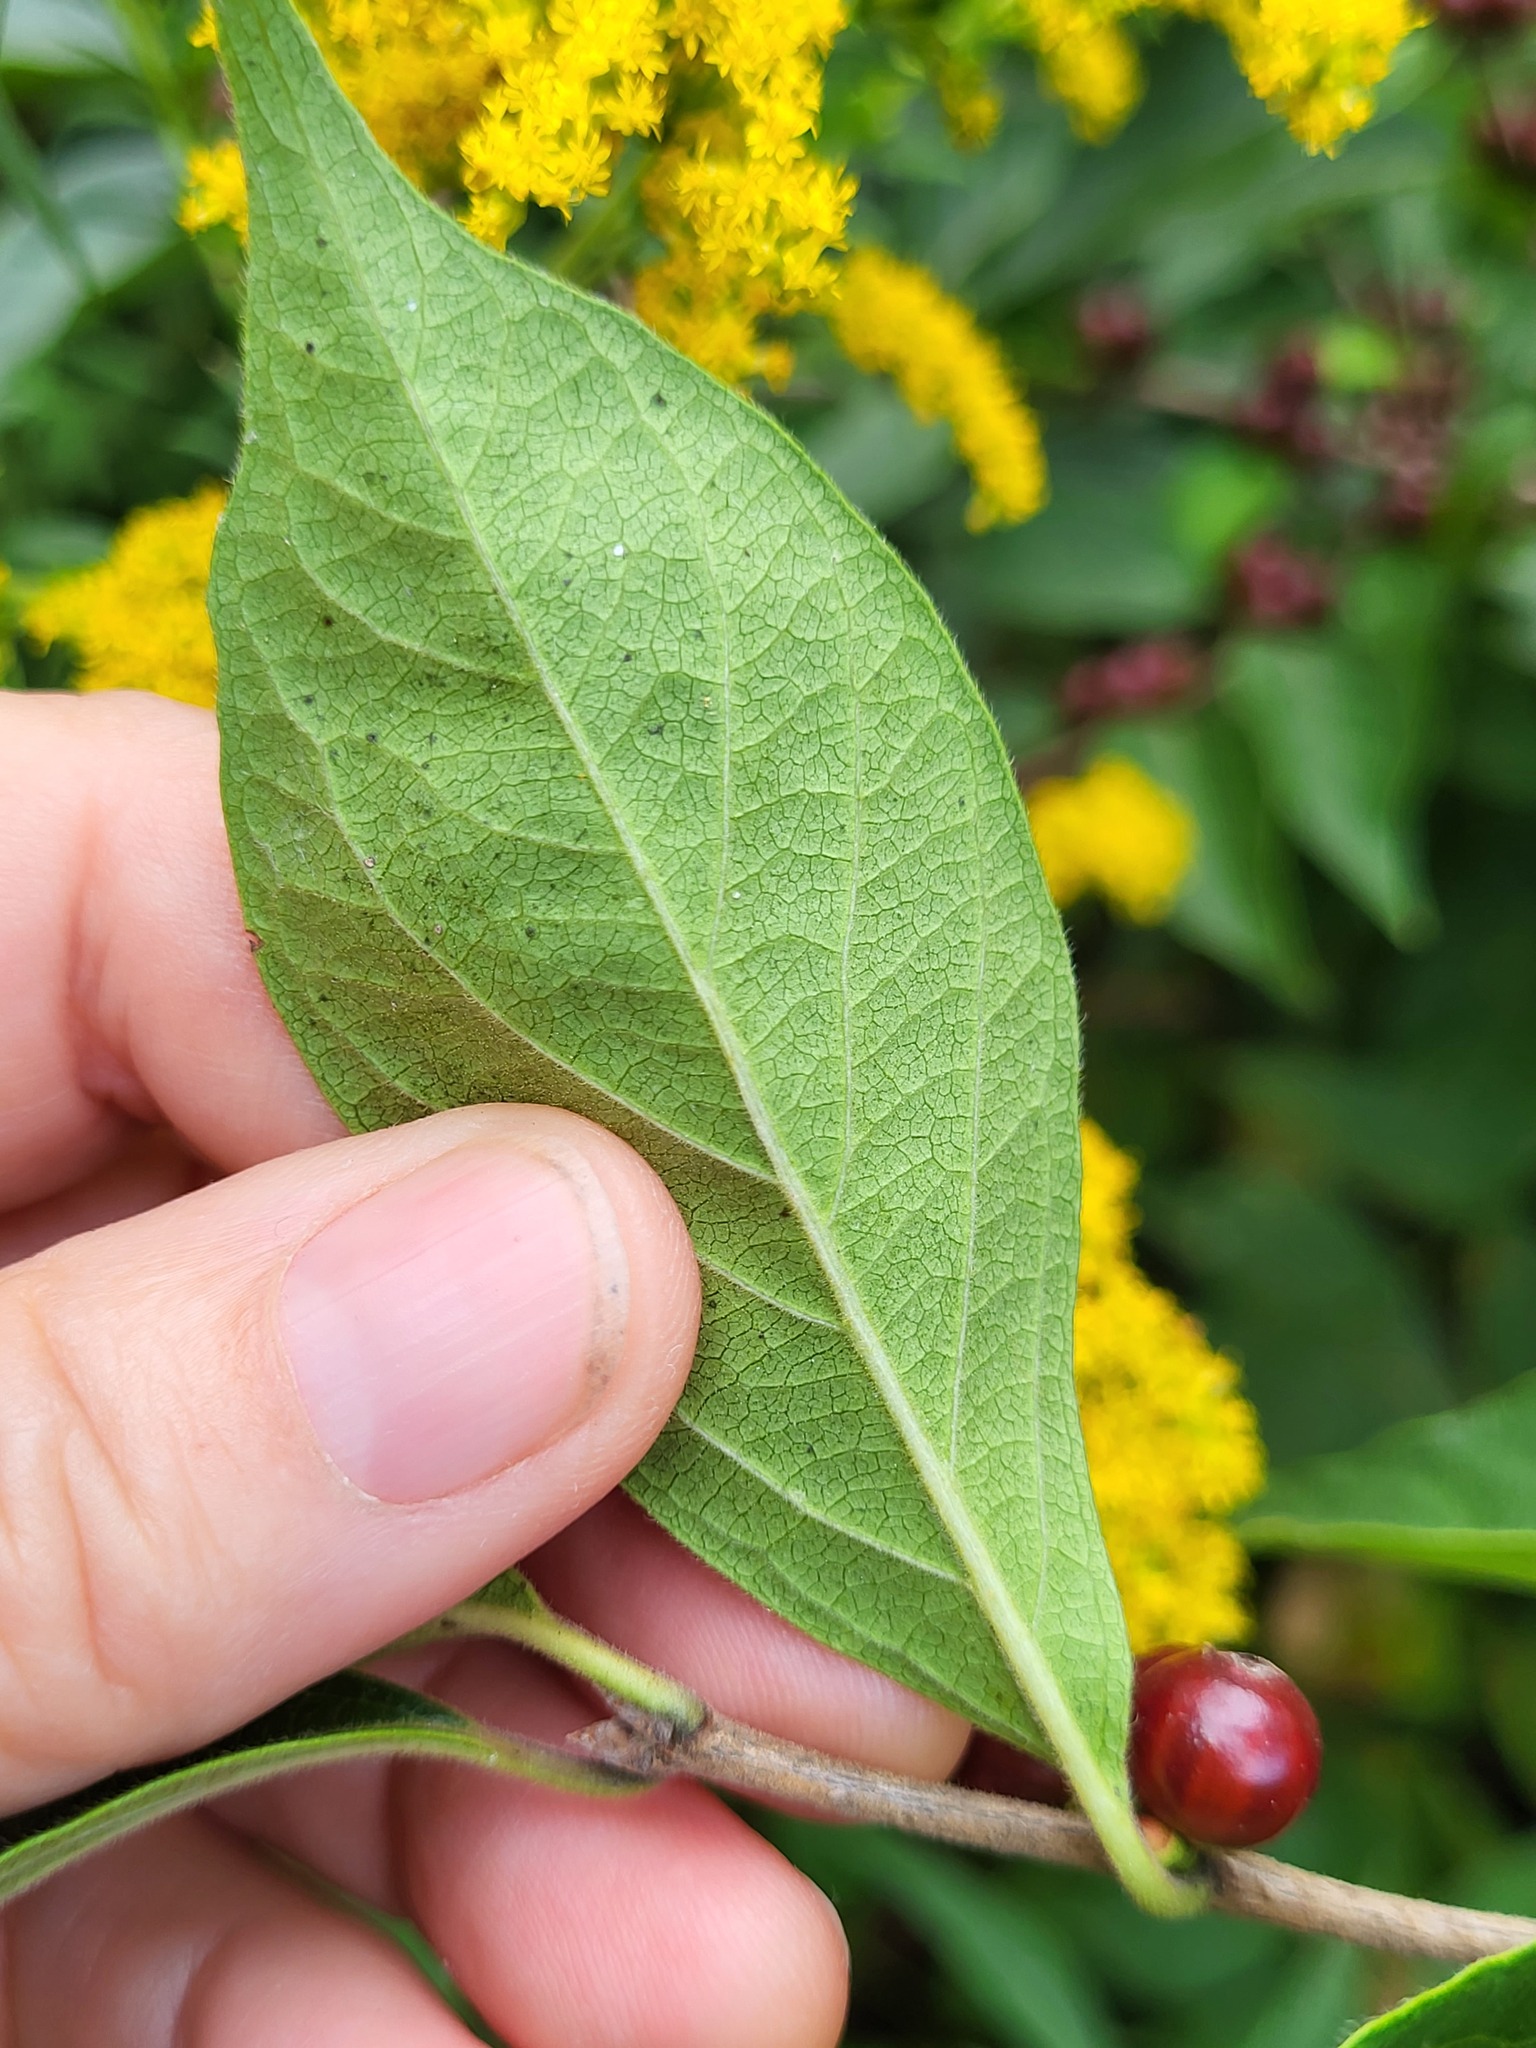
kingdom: Plantae
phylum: Tracheophyta
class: Magnoliopsida
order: Dipsacales
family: Caprifoliaceae
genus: Lonicera
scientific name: Lonicera maackii
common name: Amur honeysuckle
